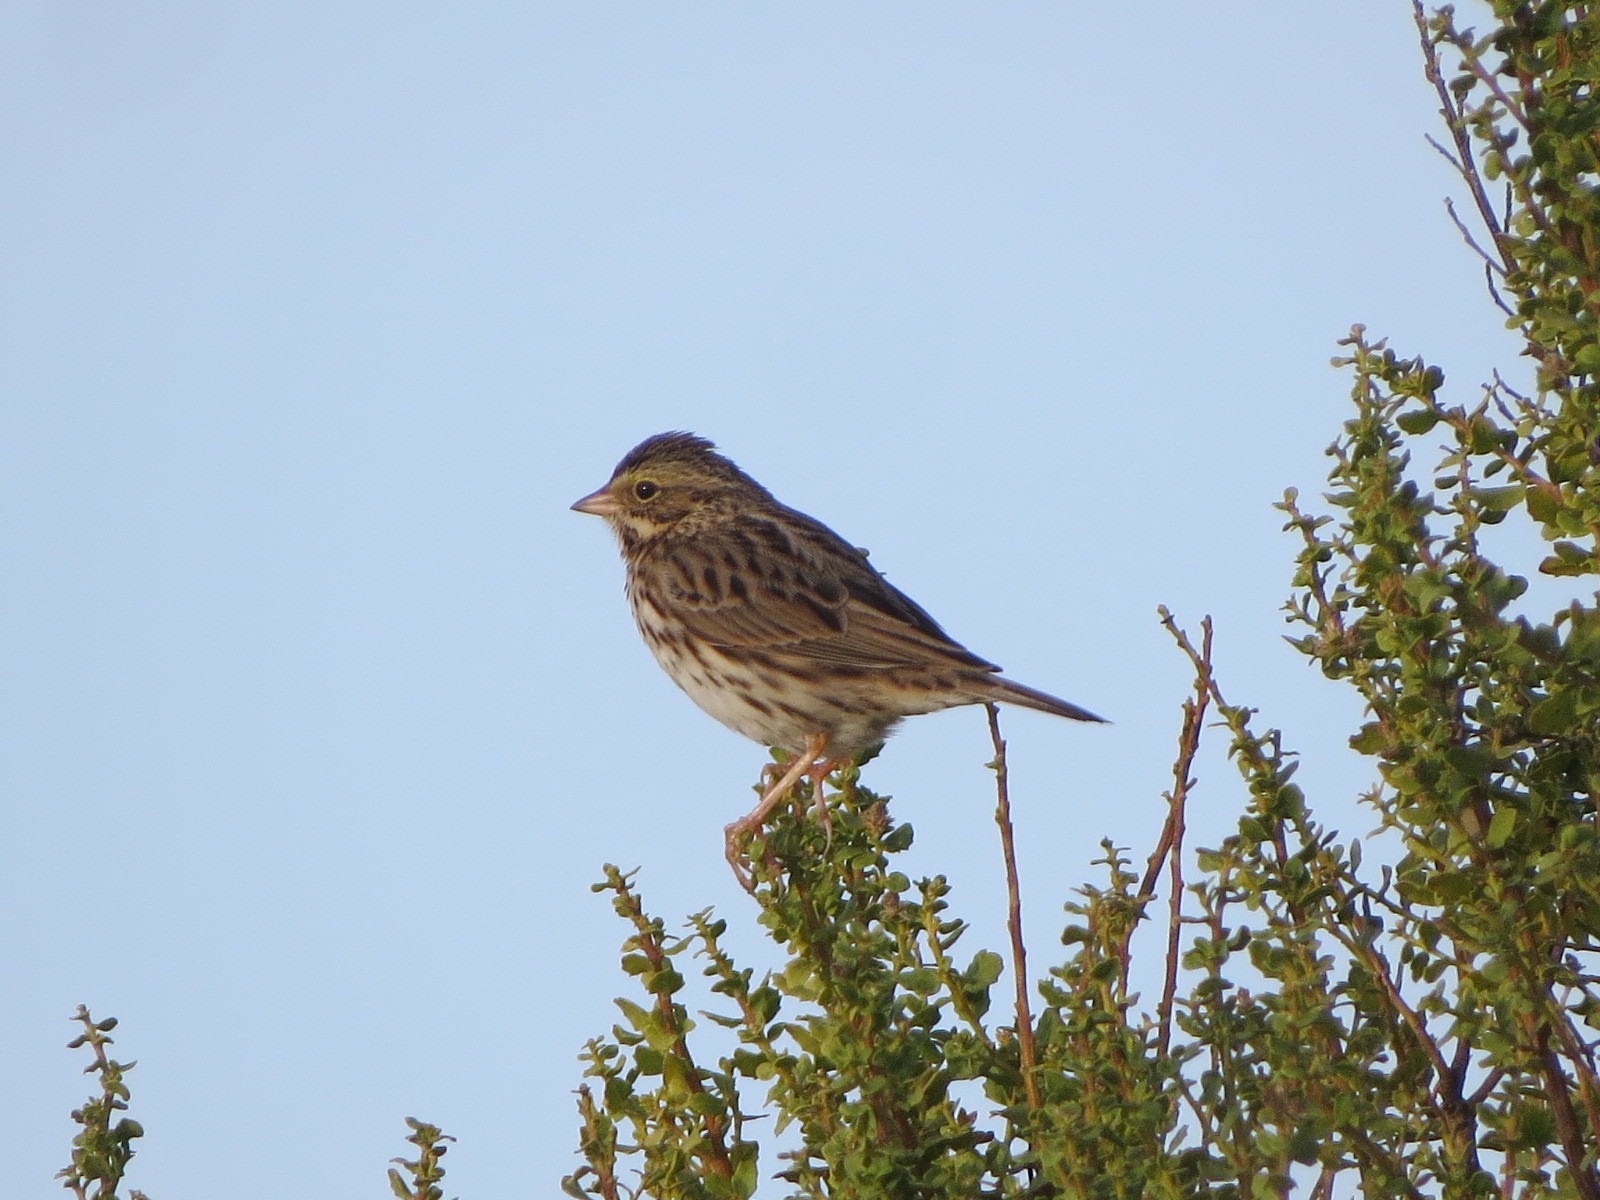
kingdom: Animalia
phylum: Chordata
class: Aves
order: Passeriformes
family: Passerellidae
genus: Passerculus
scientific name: Passerculus sandwichensis
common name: Savannah sparrow
